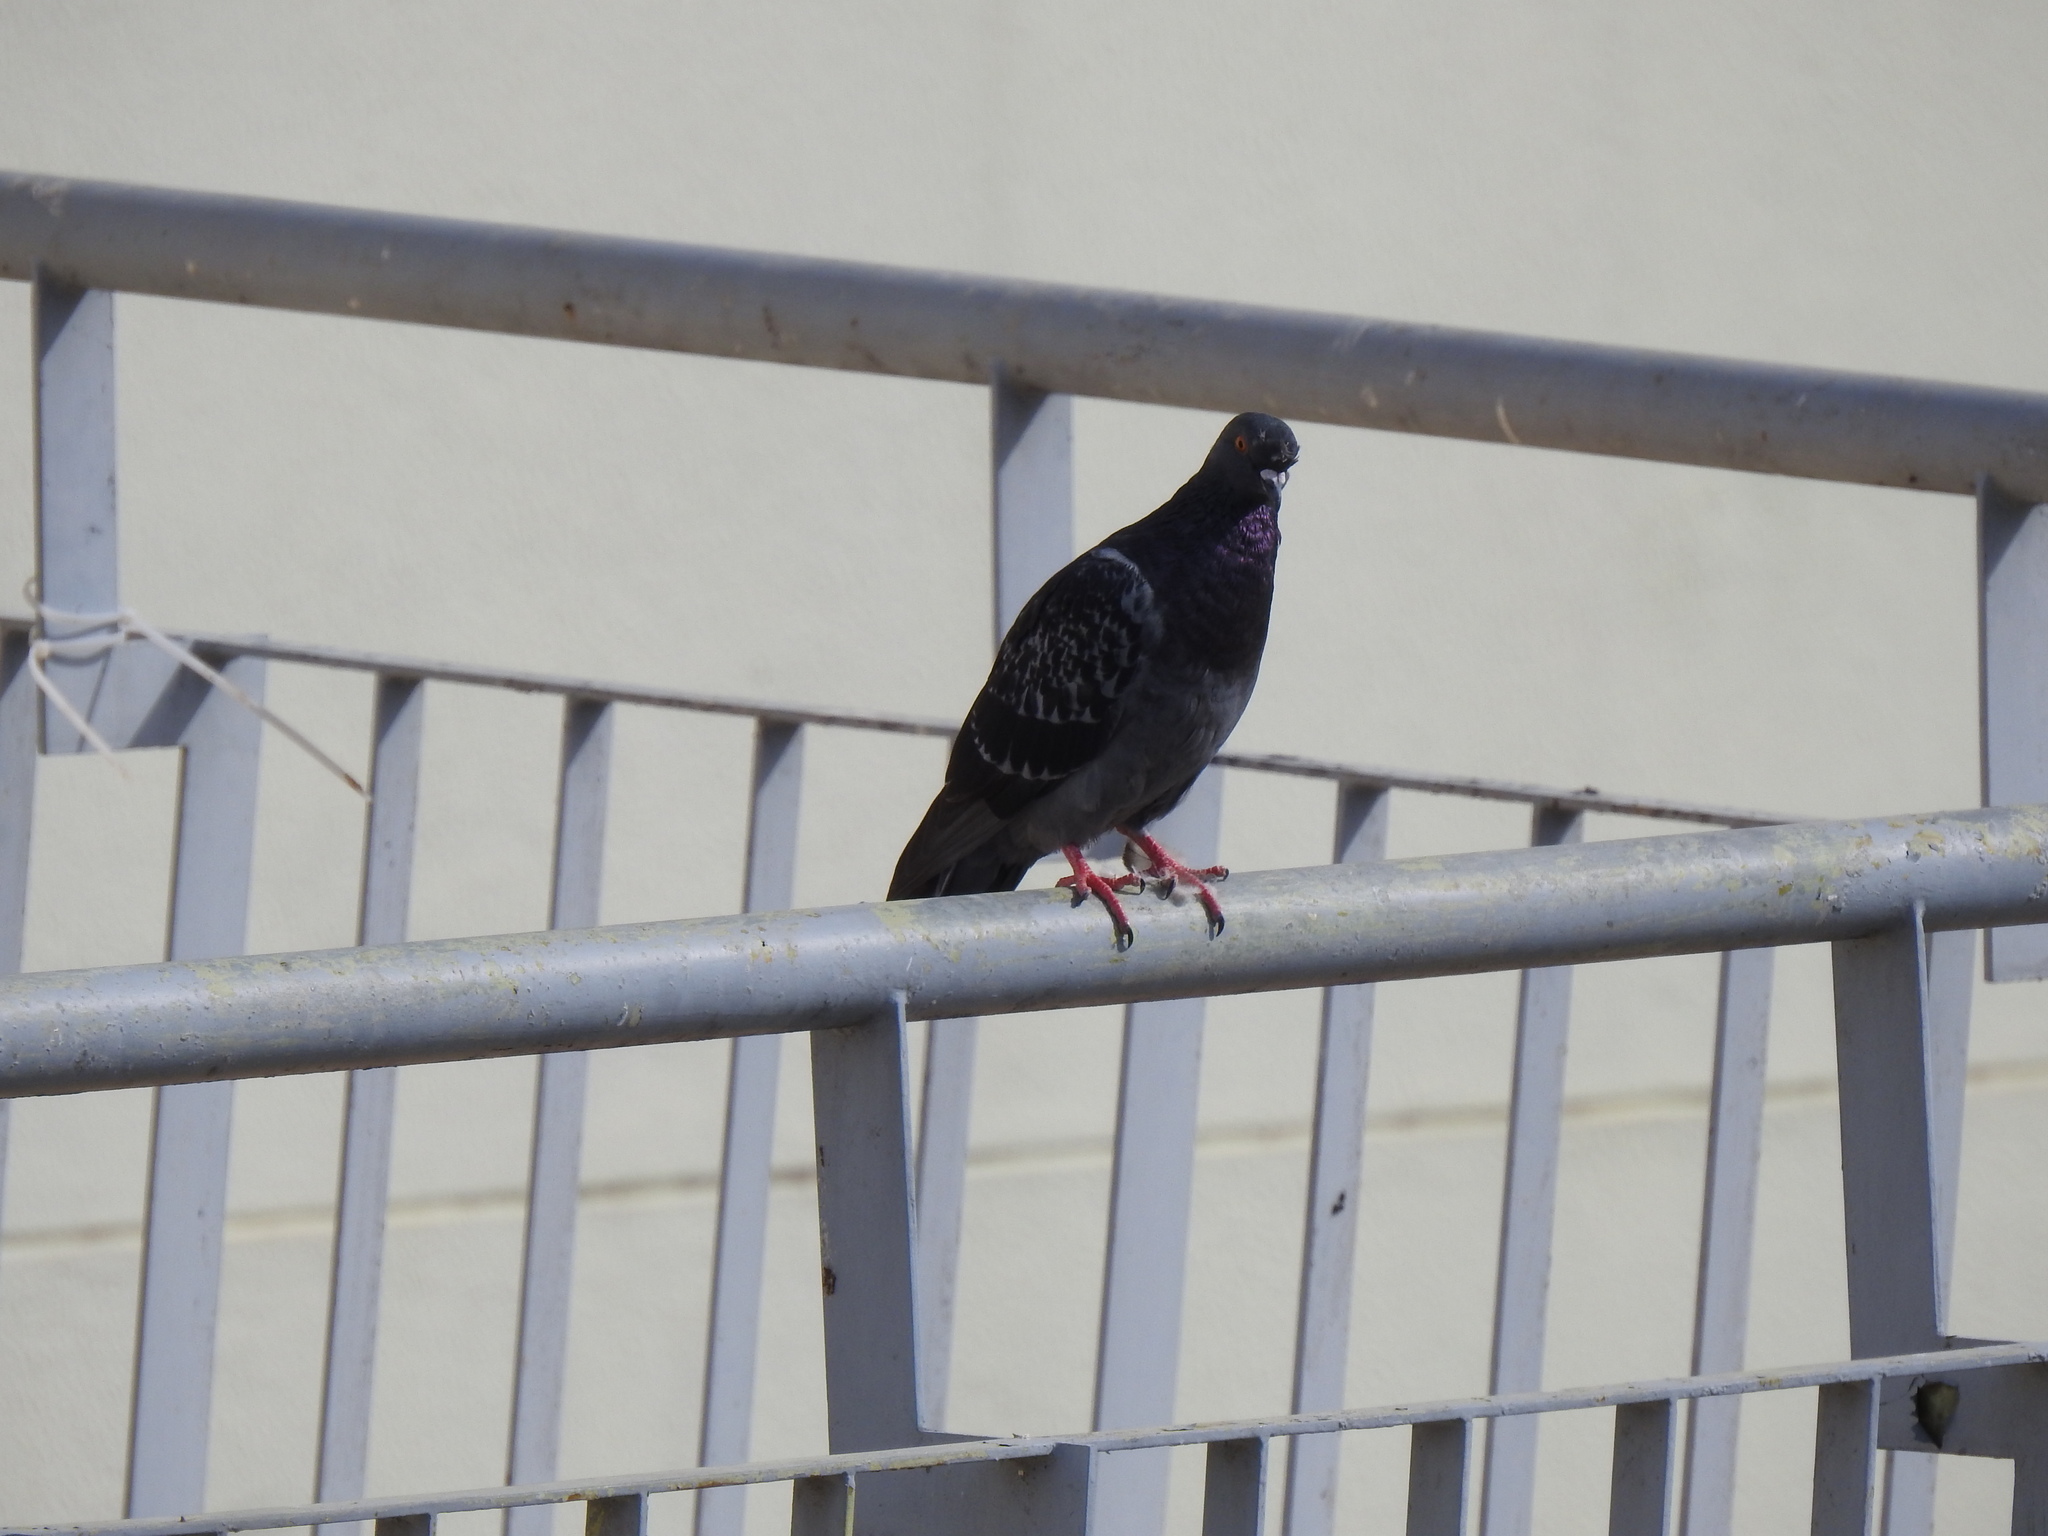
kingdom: Animalia
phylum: Chordata
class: Aves
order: Columbiformes
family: Columbidae
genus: Columba
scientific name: Columba livia
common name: Rock pigeon
